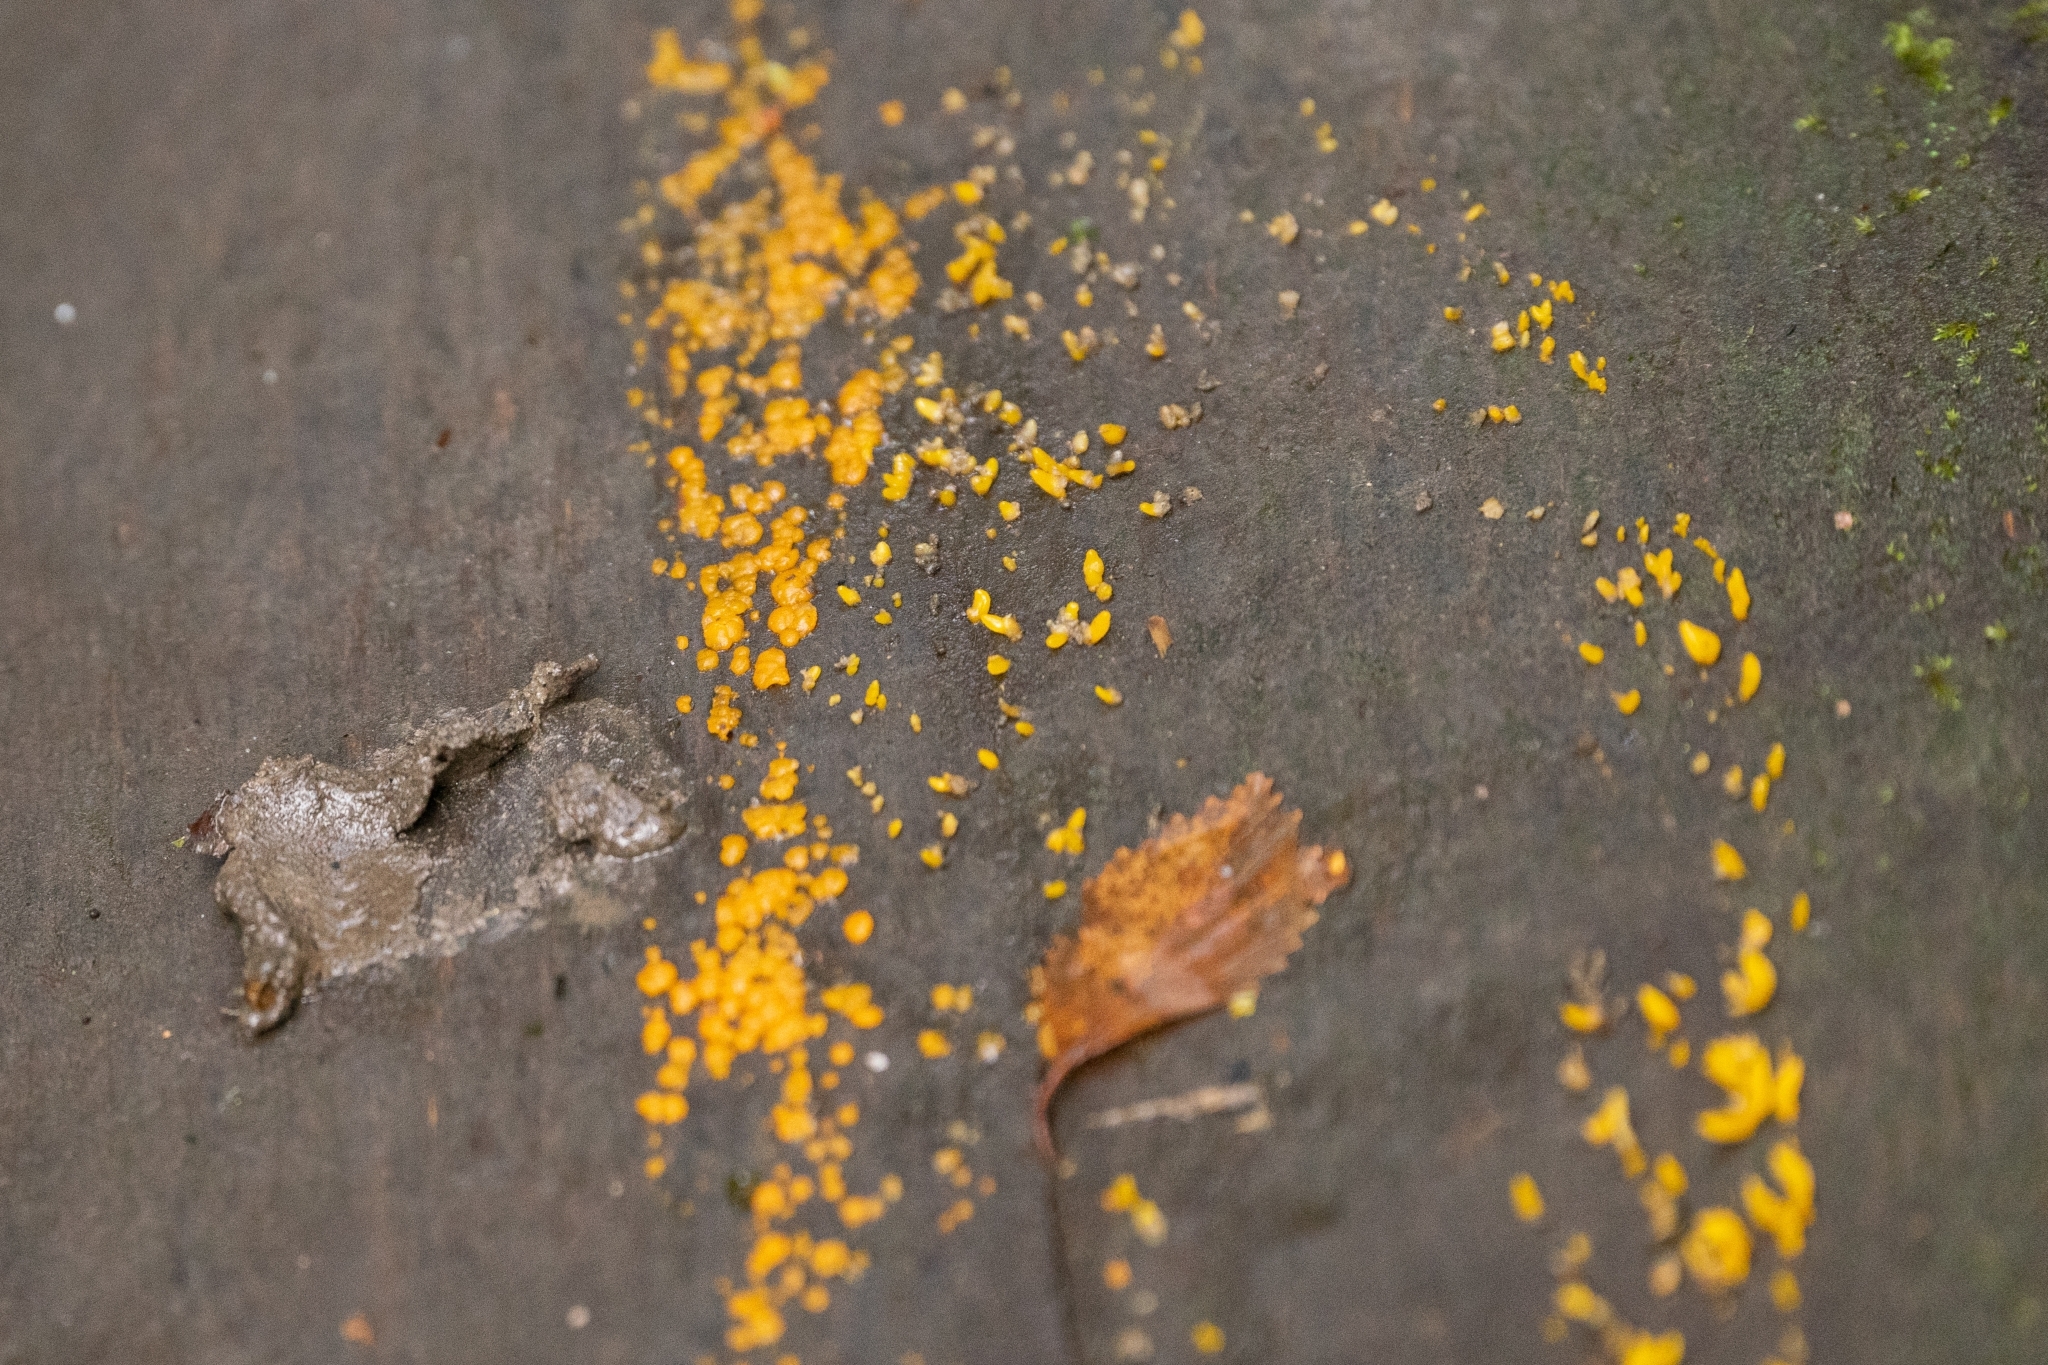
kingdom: Fungi
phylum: Basidiomycota
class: Dacrymycetes
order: Dacrymycetales
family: Dacrymycetaceae
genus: Dacrymyces
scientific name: Dacrymyces stillatus
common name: Common jelly spot
